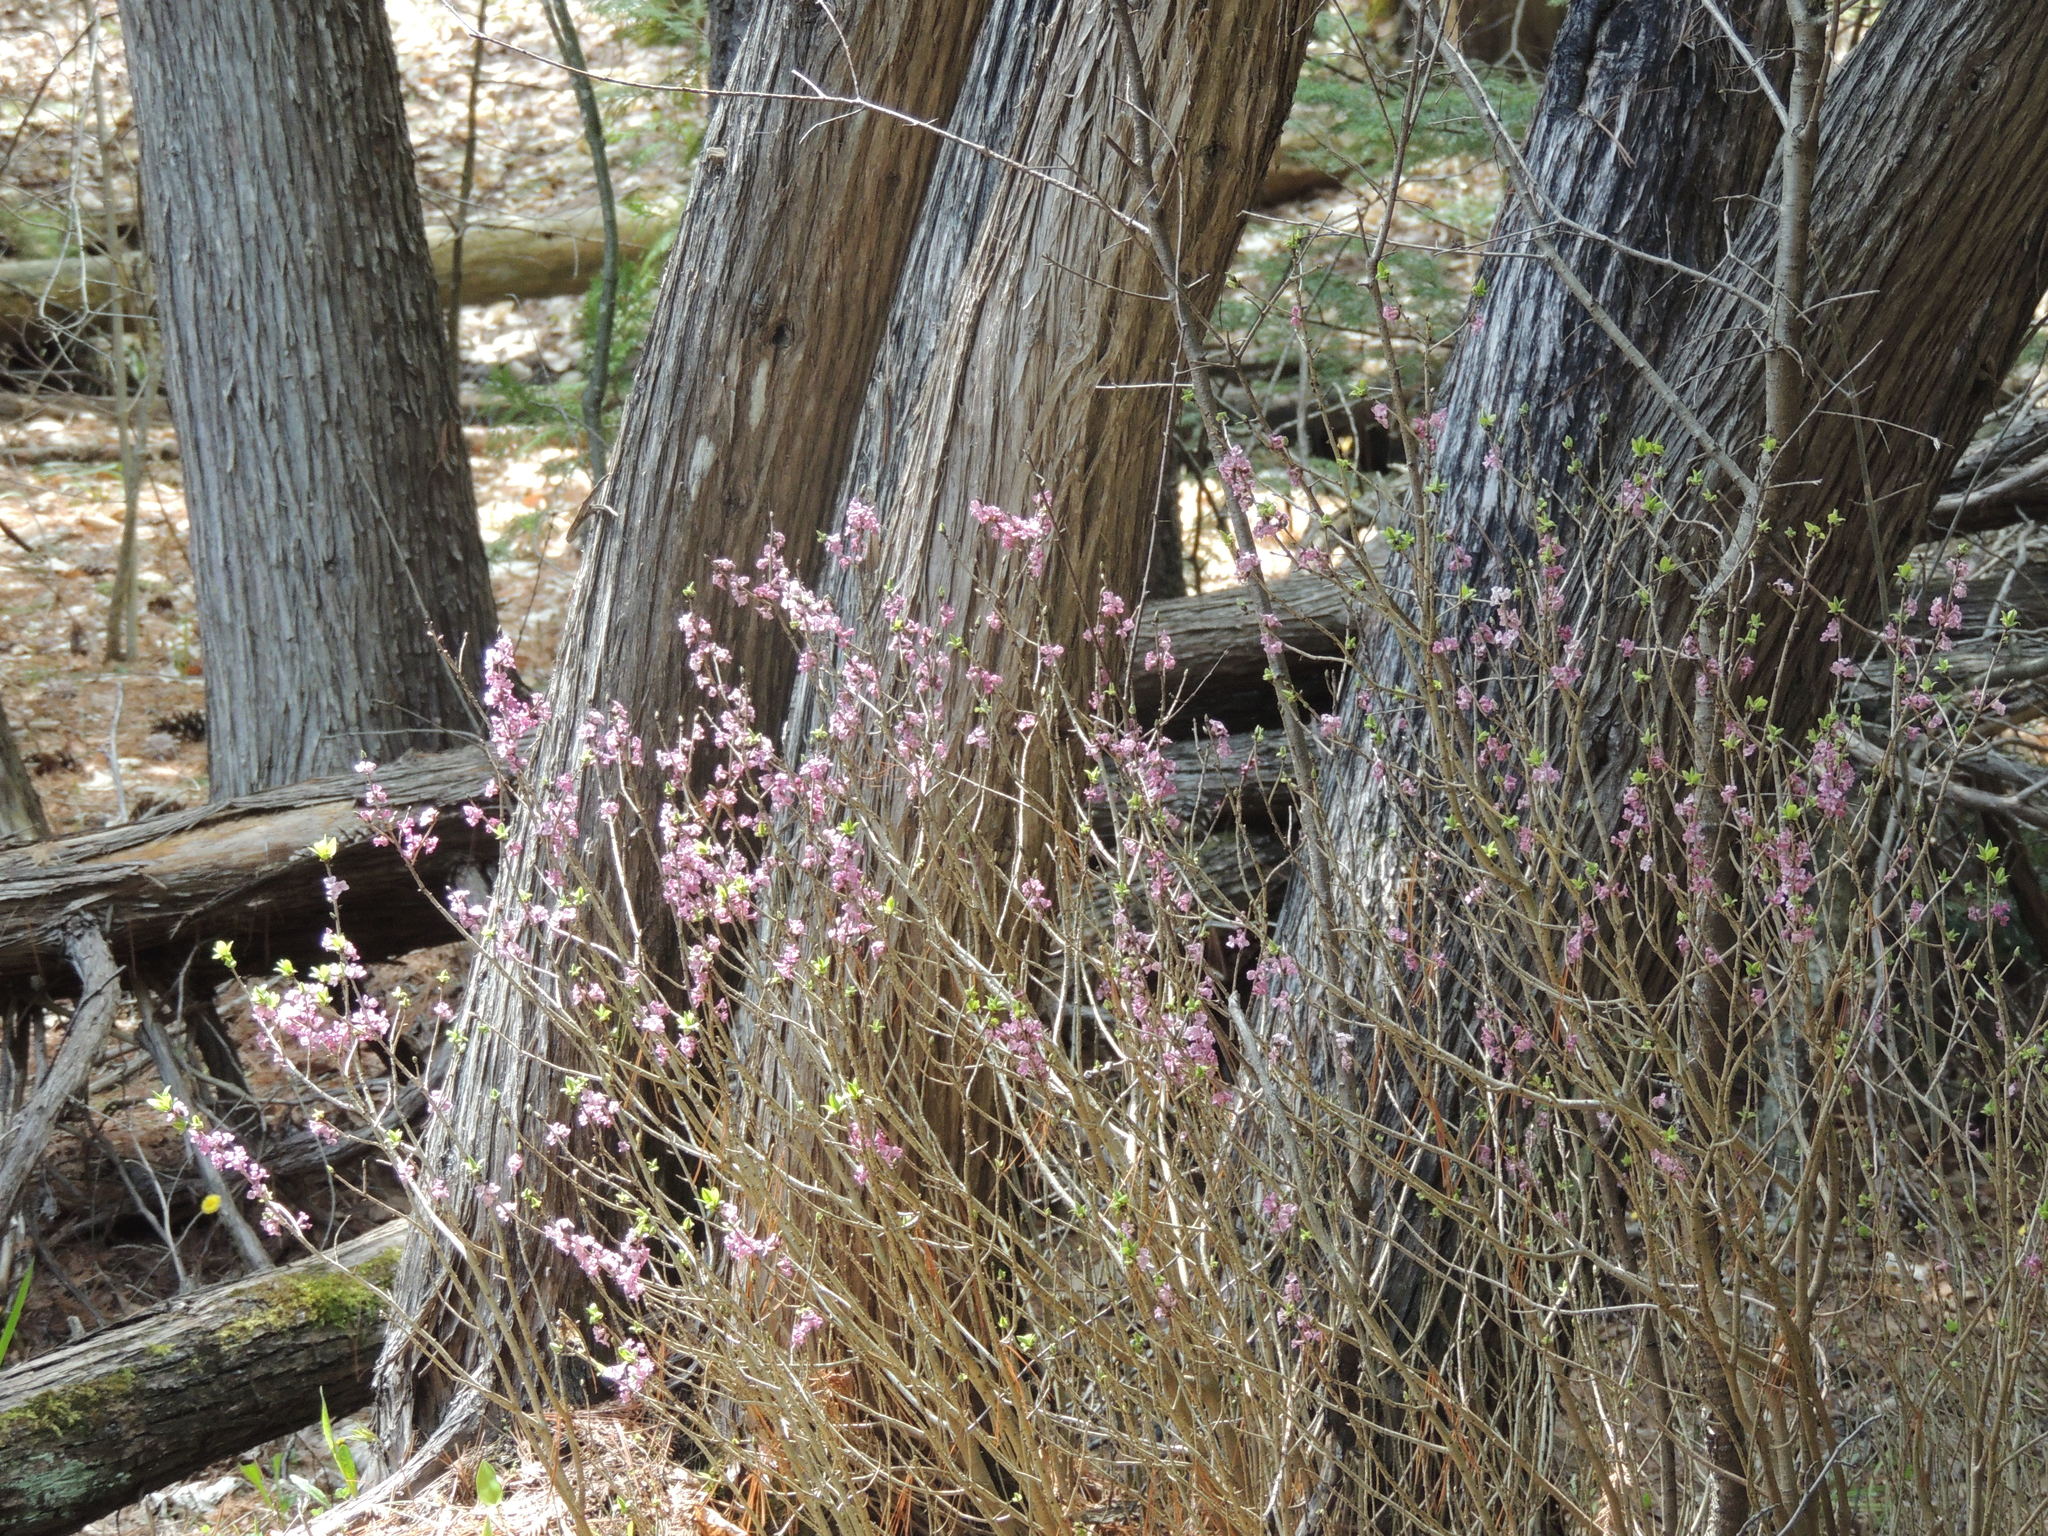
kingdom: Plantae
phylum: Tracheophyta
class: Magnoliopsida
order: Malvales
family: Thymelaeaceae
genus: Daphne
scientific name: Daphne mezereum
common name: Mezereon
